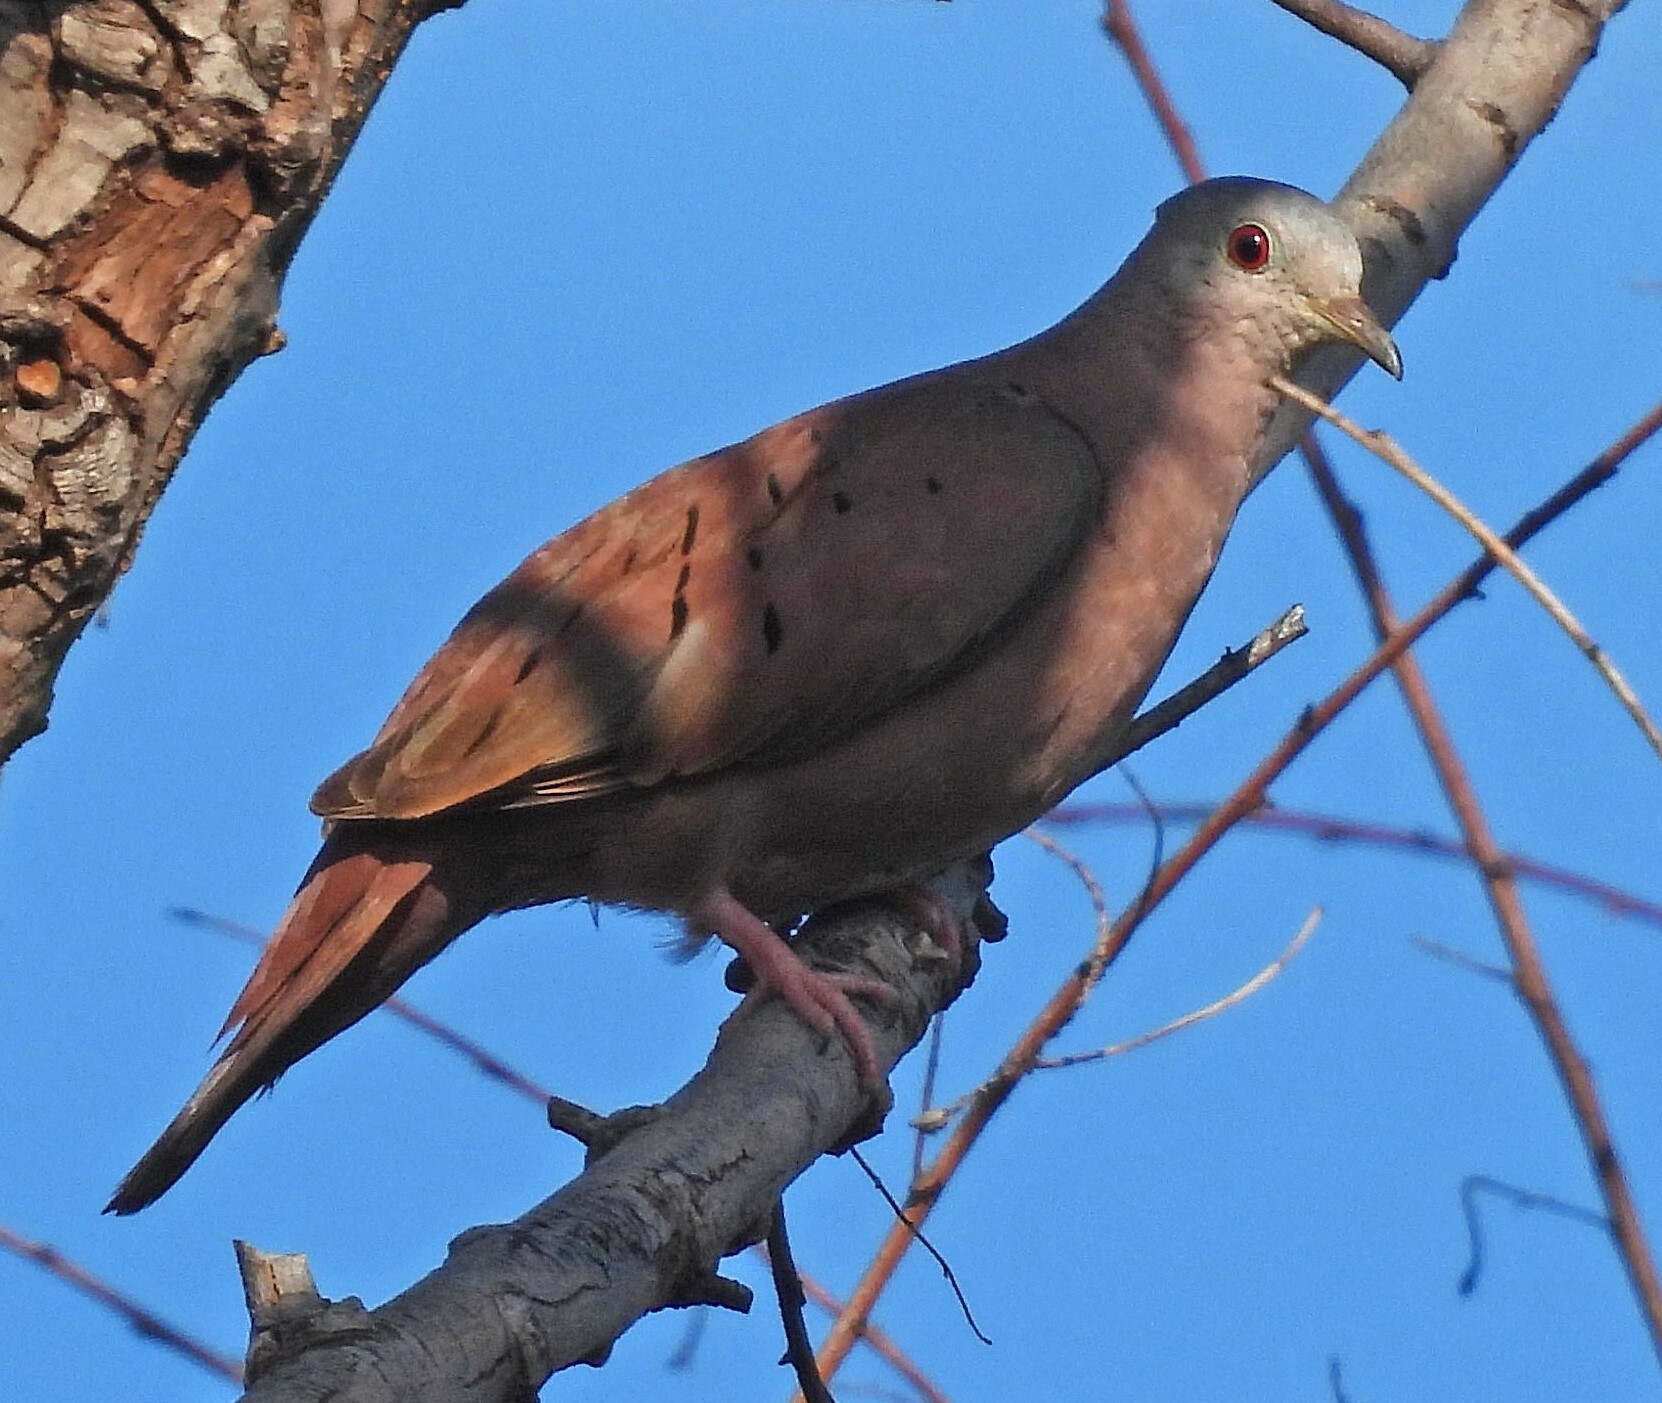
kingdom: Animalia
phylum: Chordata
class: Aves
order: Columbiformes
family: Columbidae
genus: Columbina
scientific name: Columbina talpacoti
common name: Ruddy ground dove
